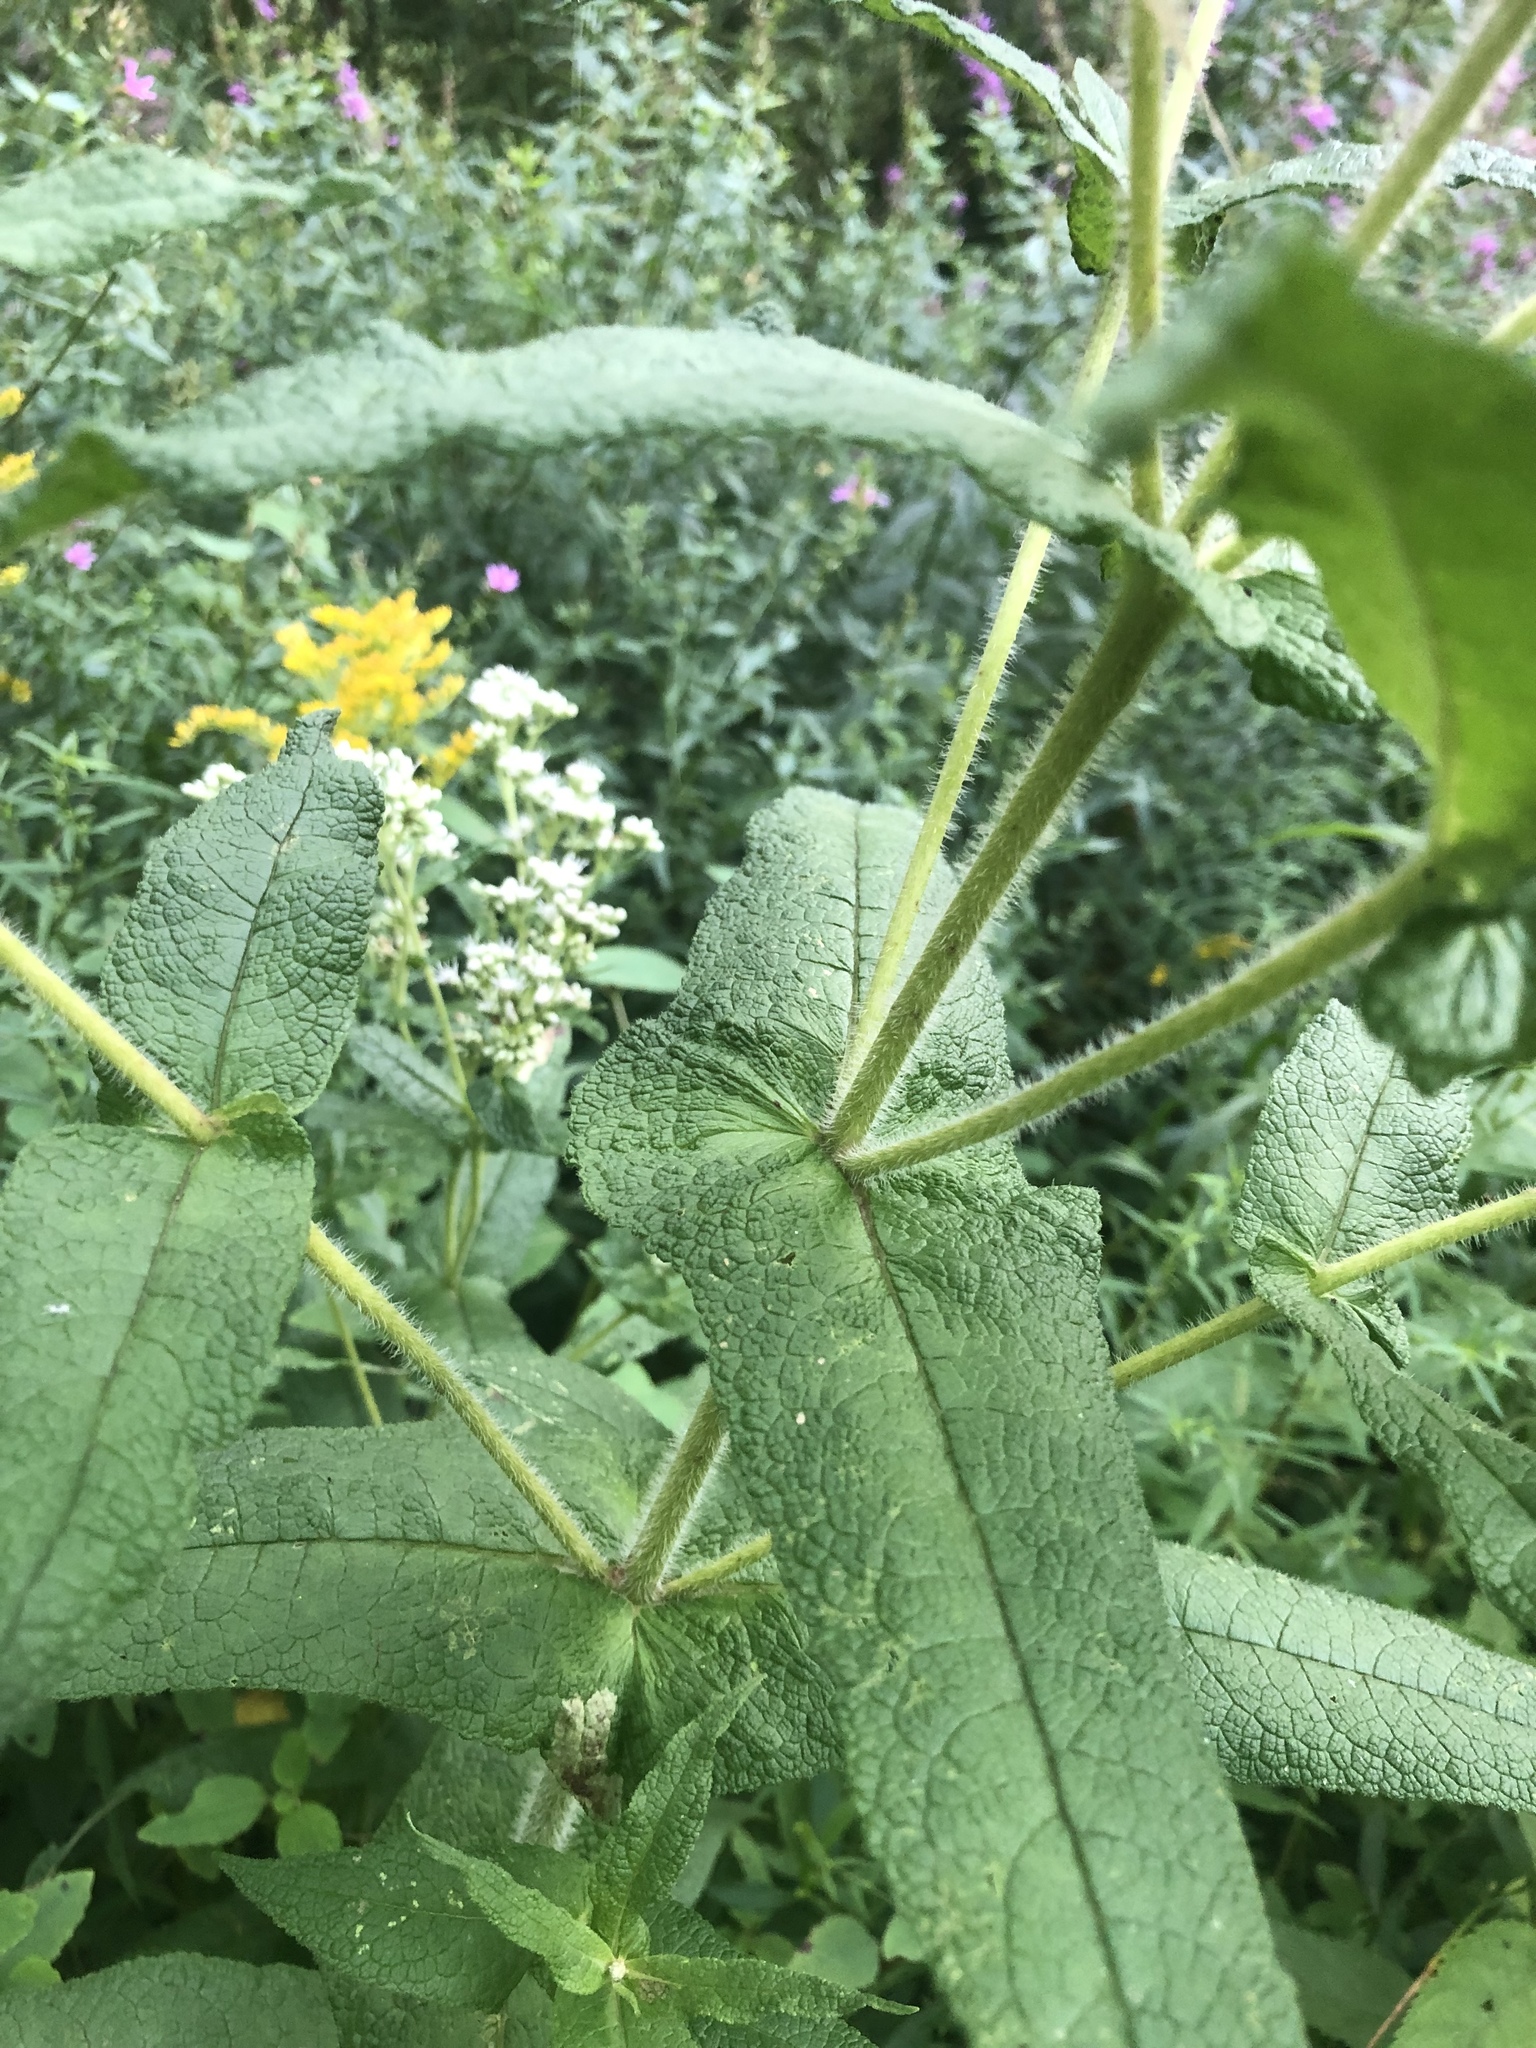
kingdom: Plantae
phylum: Tracheophyta
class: Magnoliopsida
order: Asterales
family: Asteraceae
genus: Eupatorium
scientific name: Eupatorium perfoliatum
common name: Boneset
